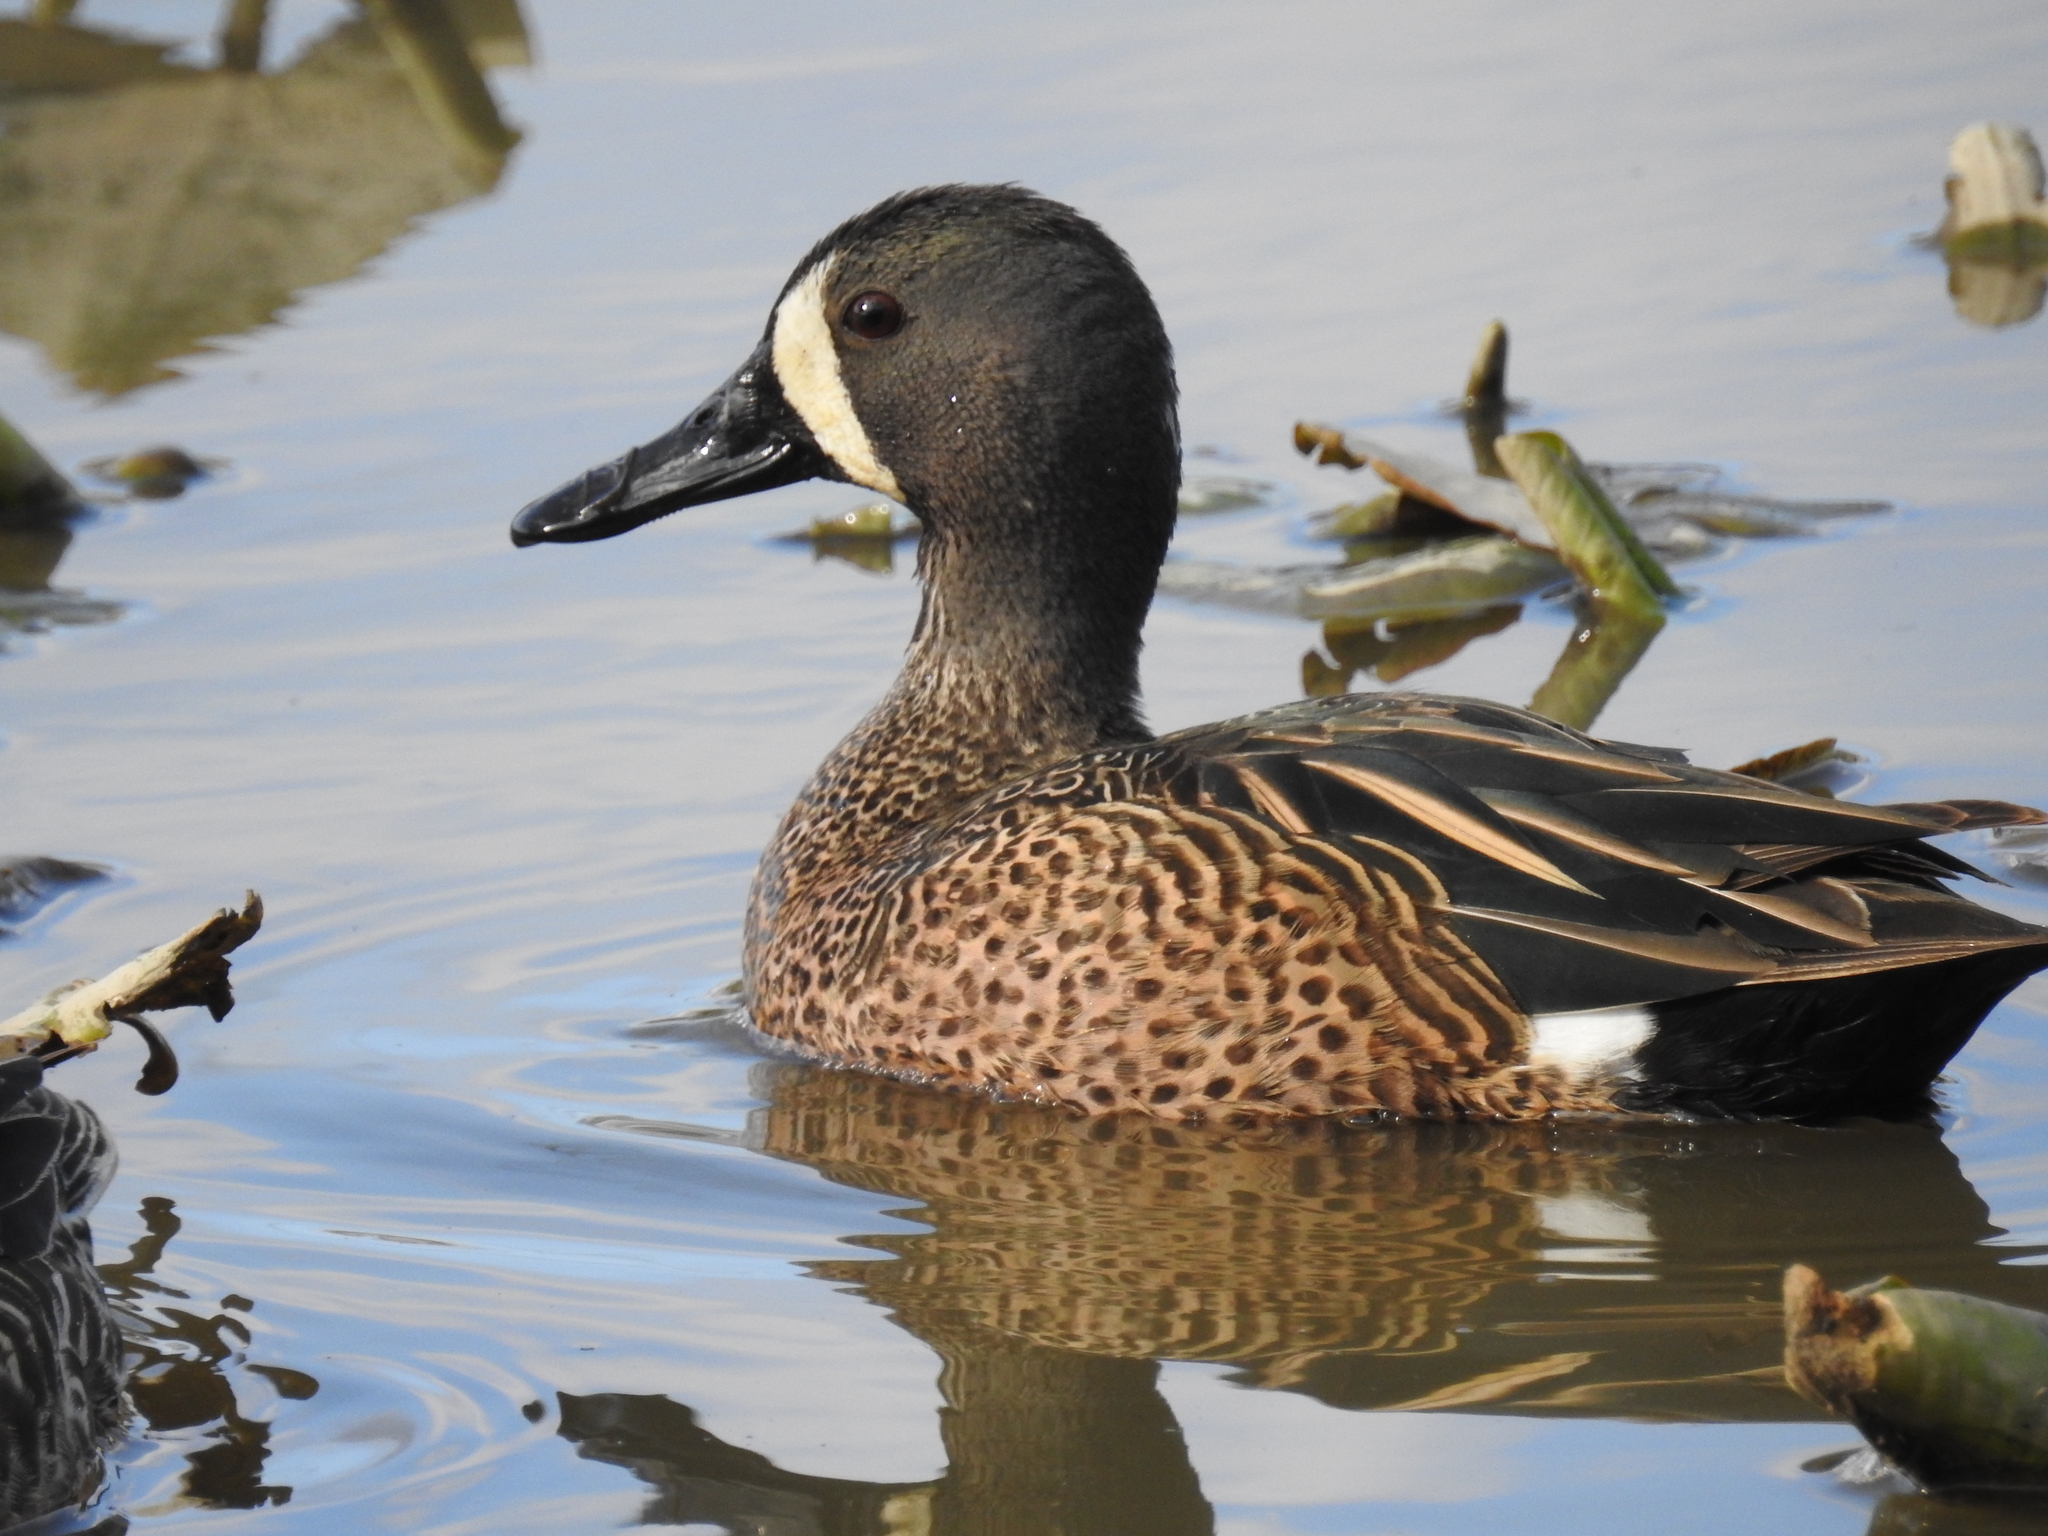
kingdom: Animalia
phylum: Chordata
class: Aves
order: Anseriformes
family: Anatidae
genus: Spatula
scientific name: Spatula discors
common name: Blue-winged teal
